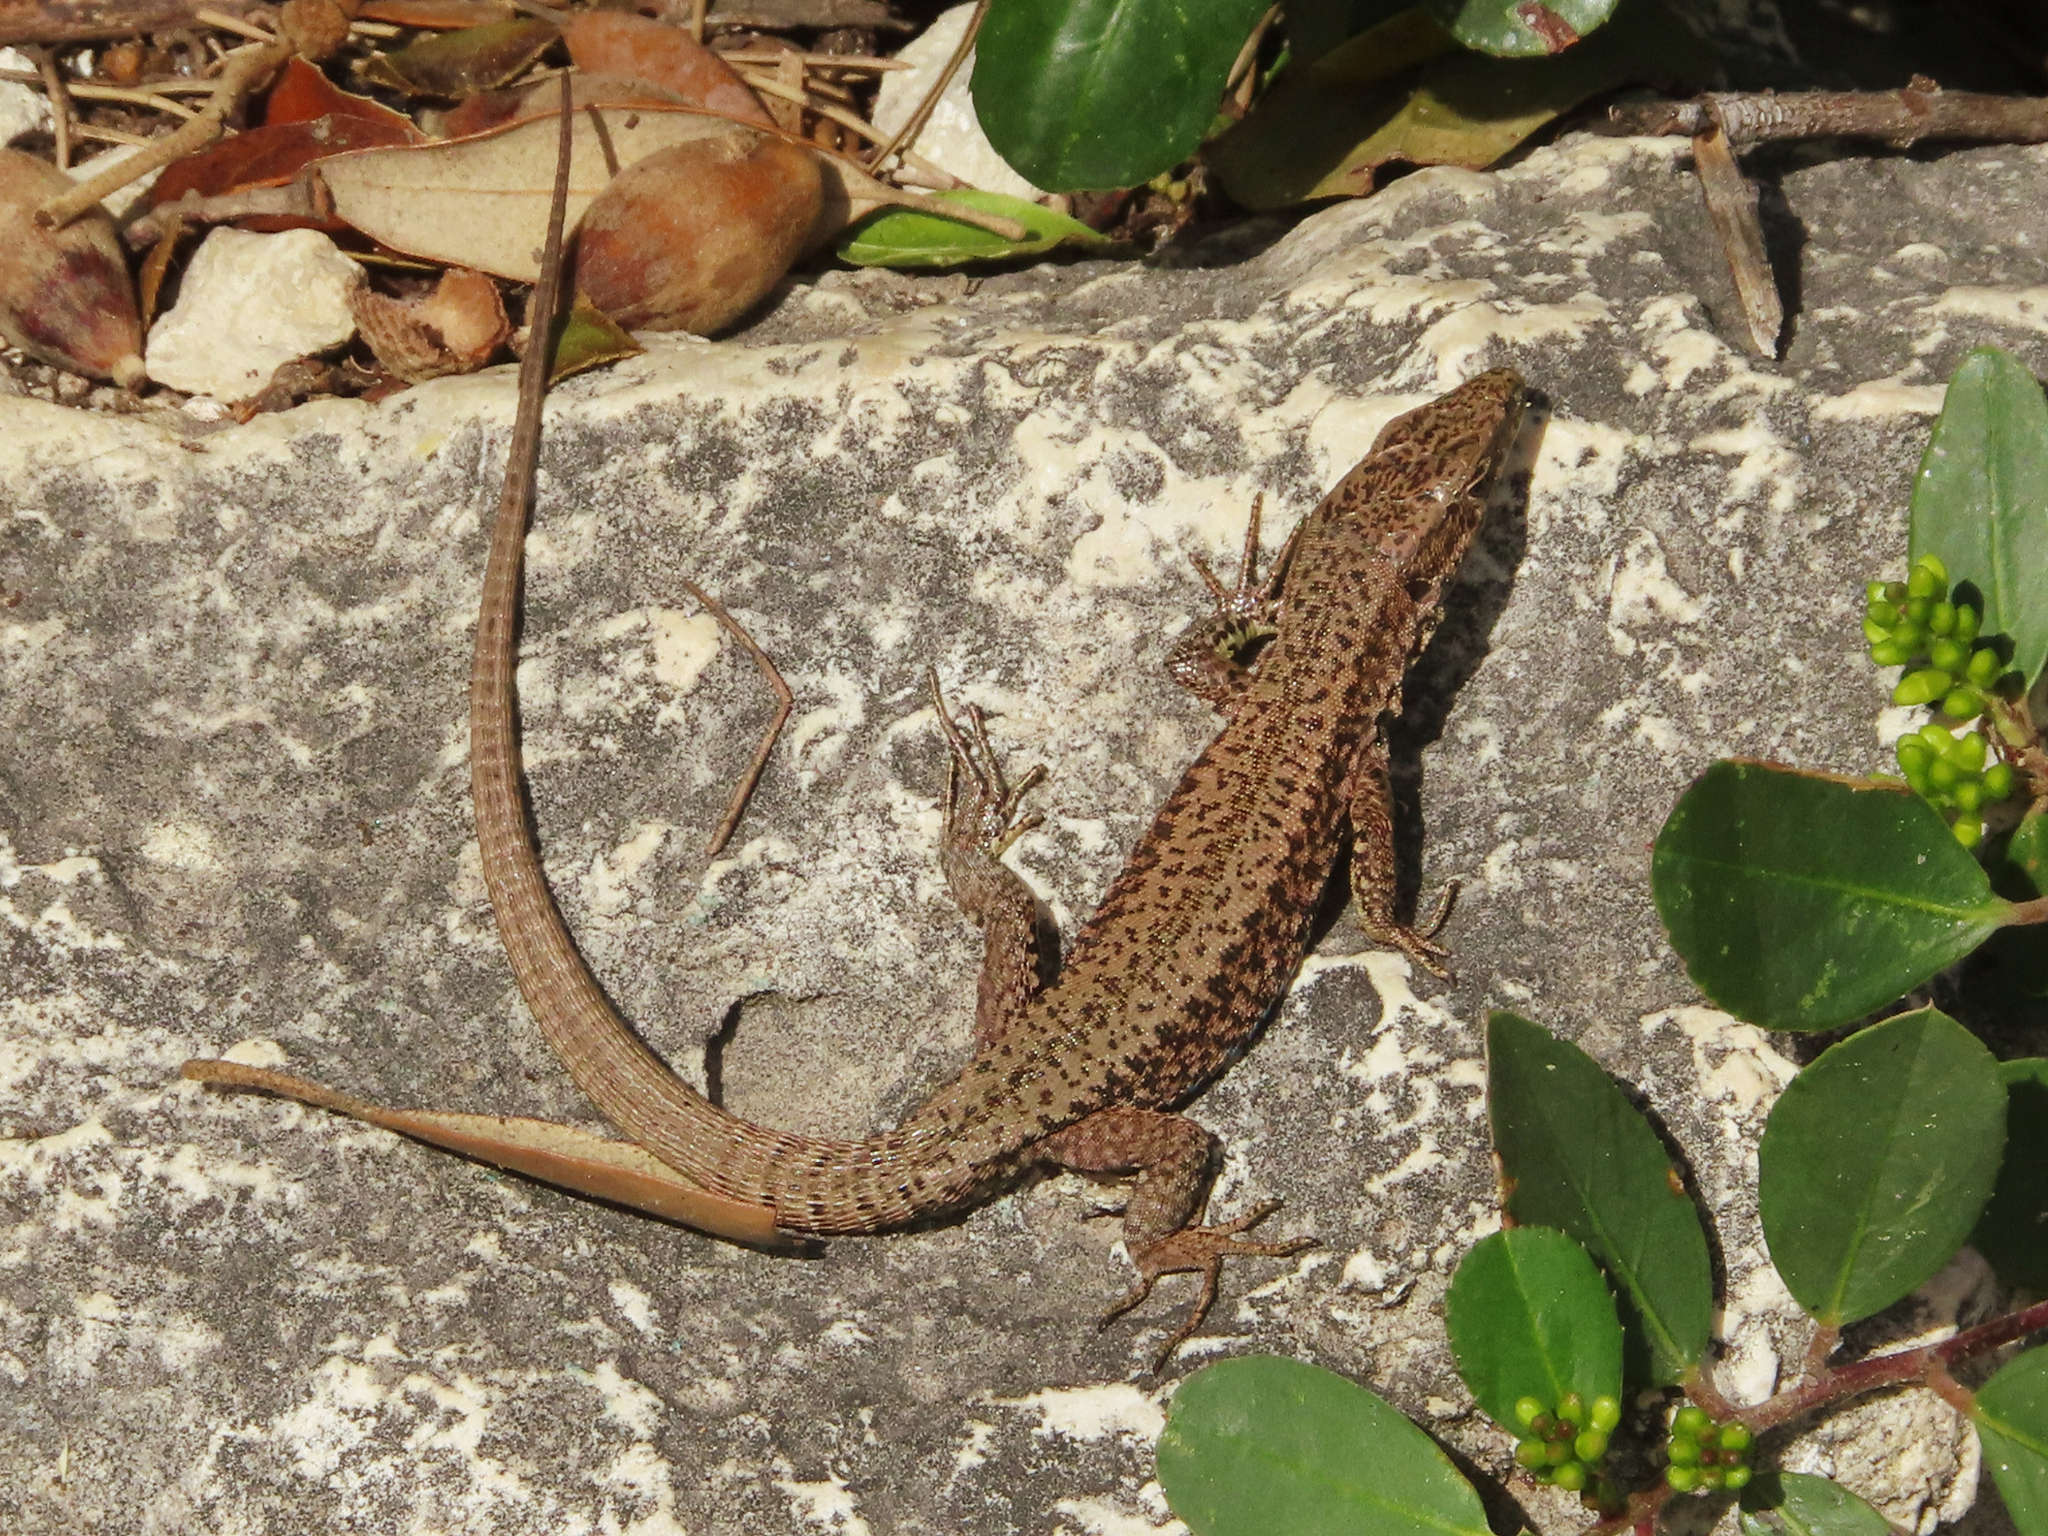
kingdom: Animalia
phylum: Chordata
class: Squamata
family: Lacertidae
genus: Podarcis
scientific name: Podarcis muralis
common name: Common wall lizard
